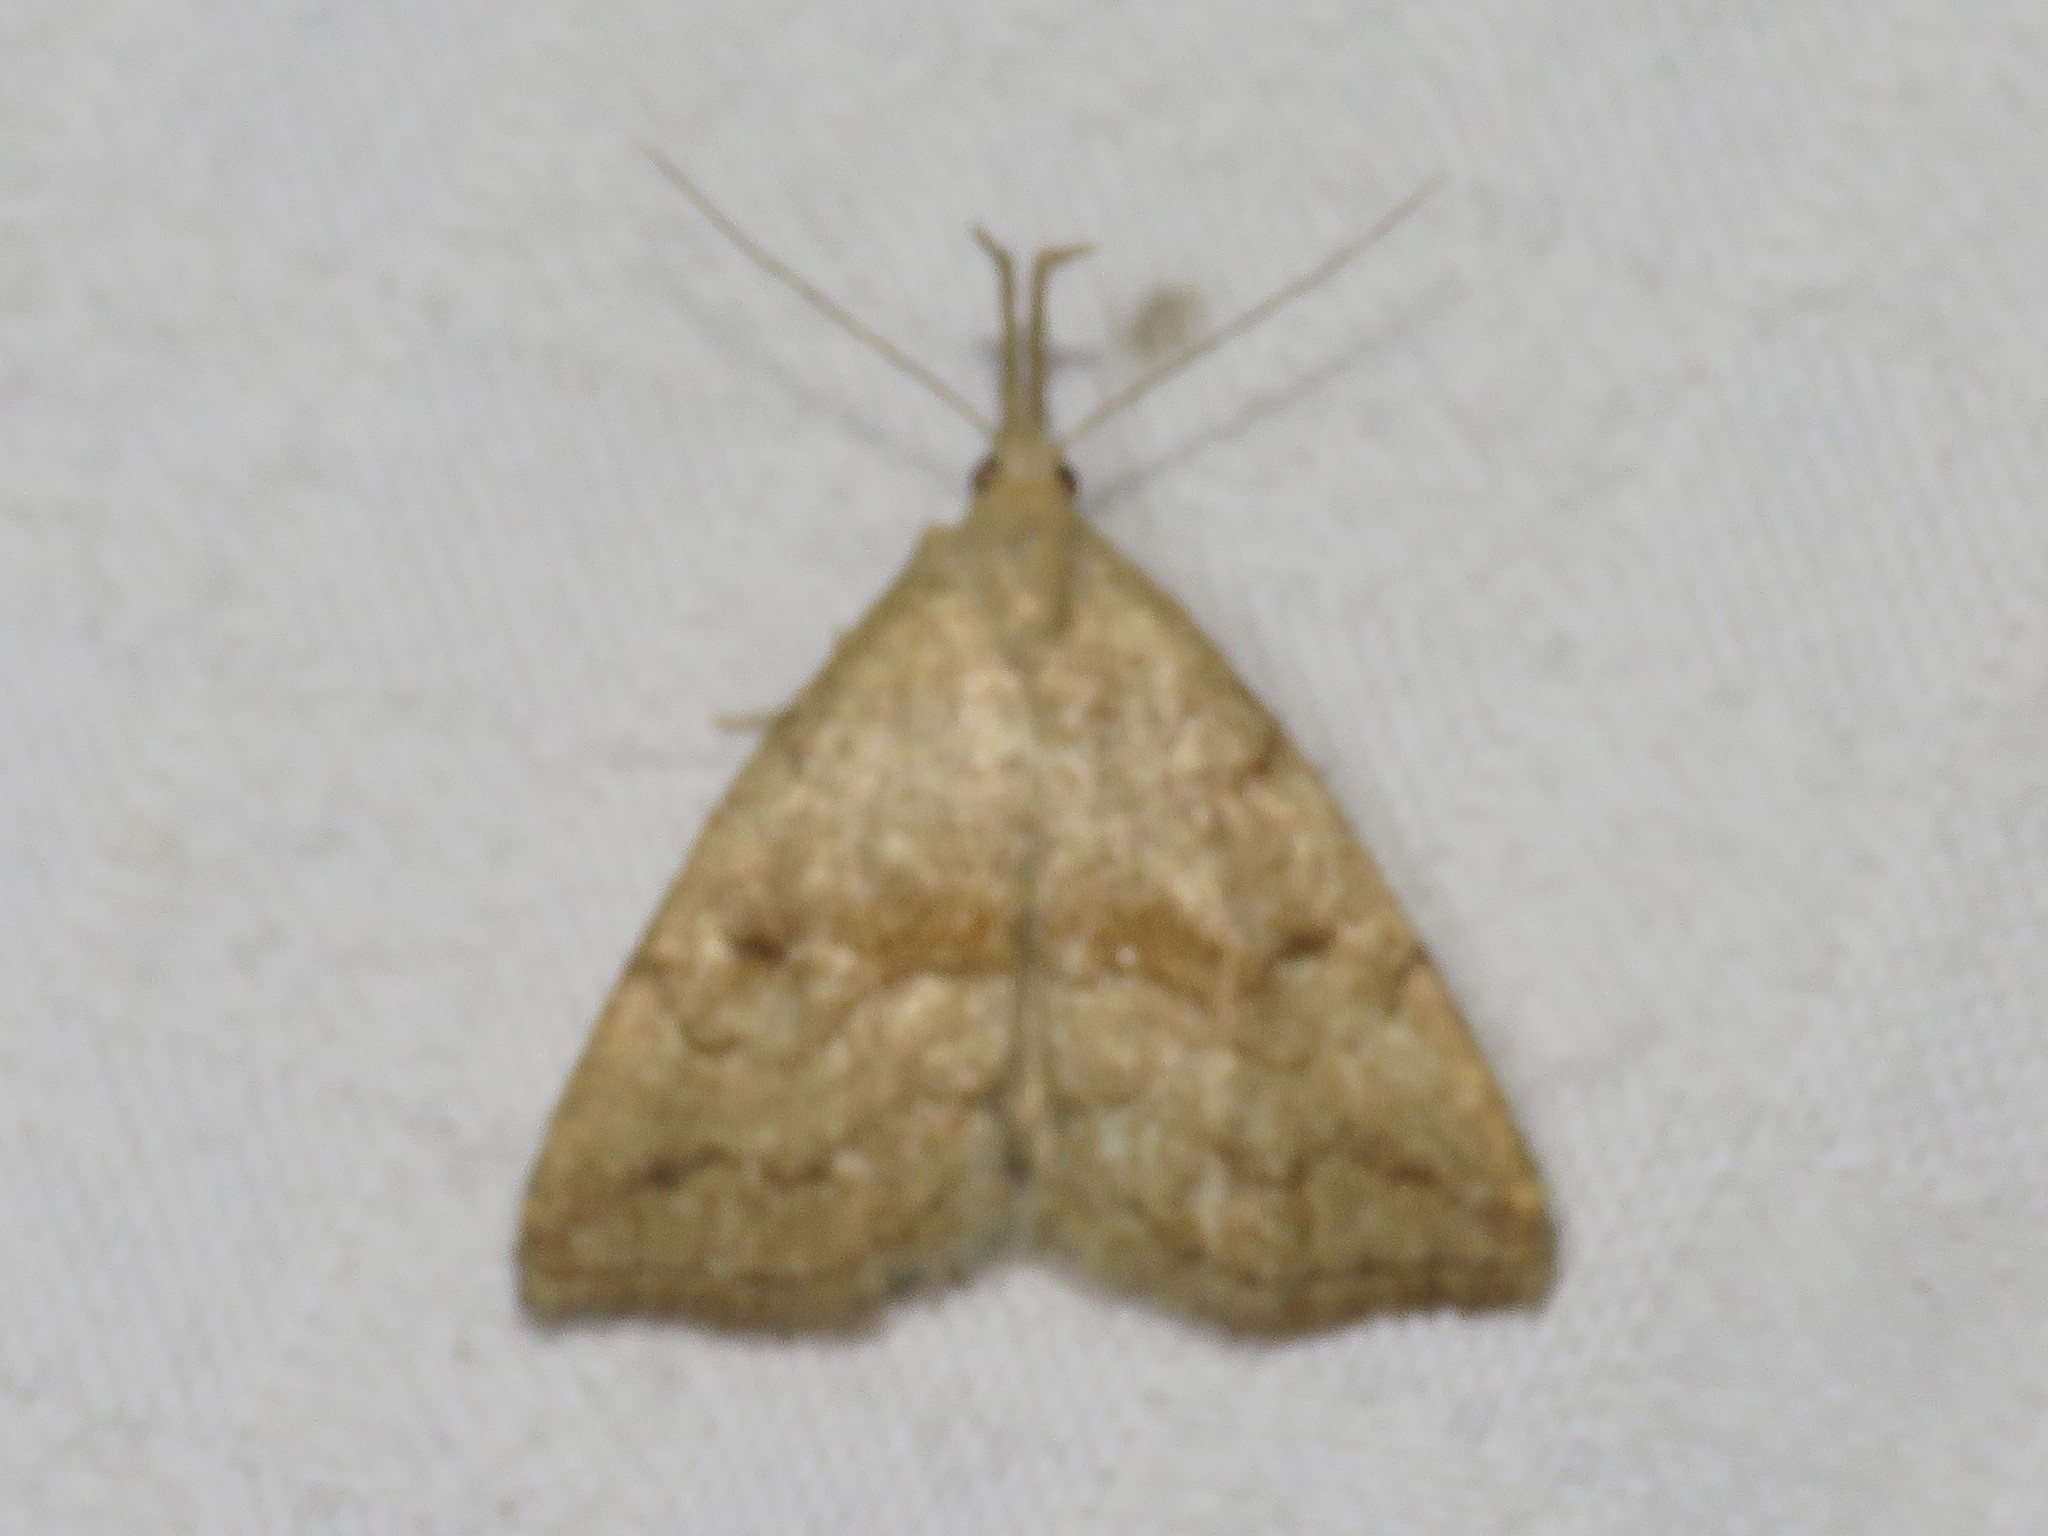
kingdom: Animalia
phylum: Arthropoda
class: Insecta
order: Lepidoptera
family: Erebidae
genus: Phalaenostola
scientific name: Phalaenostola metonalis
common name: Pale phalaenostola moth
